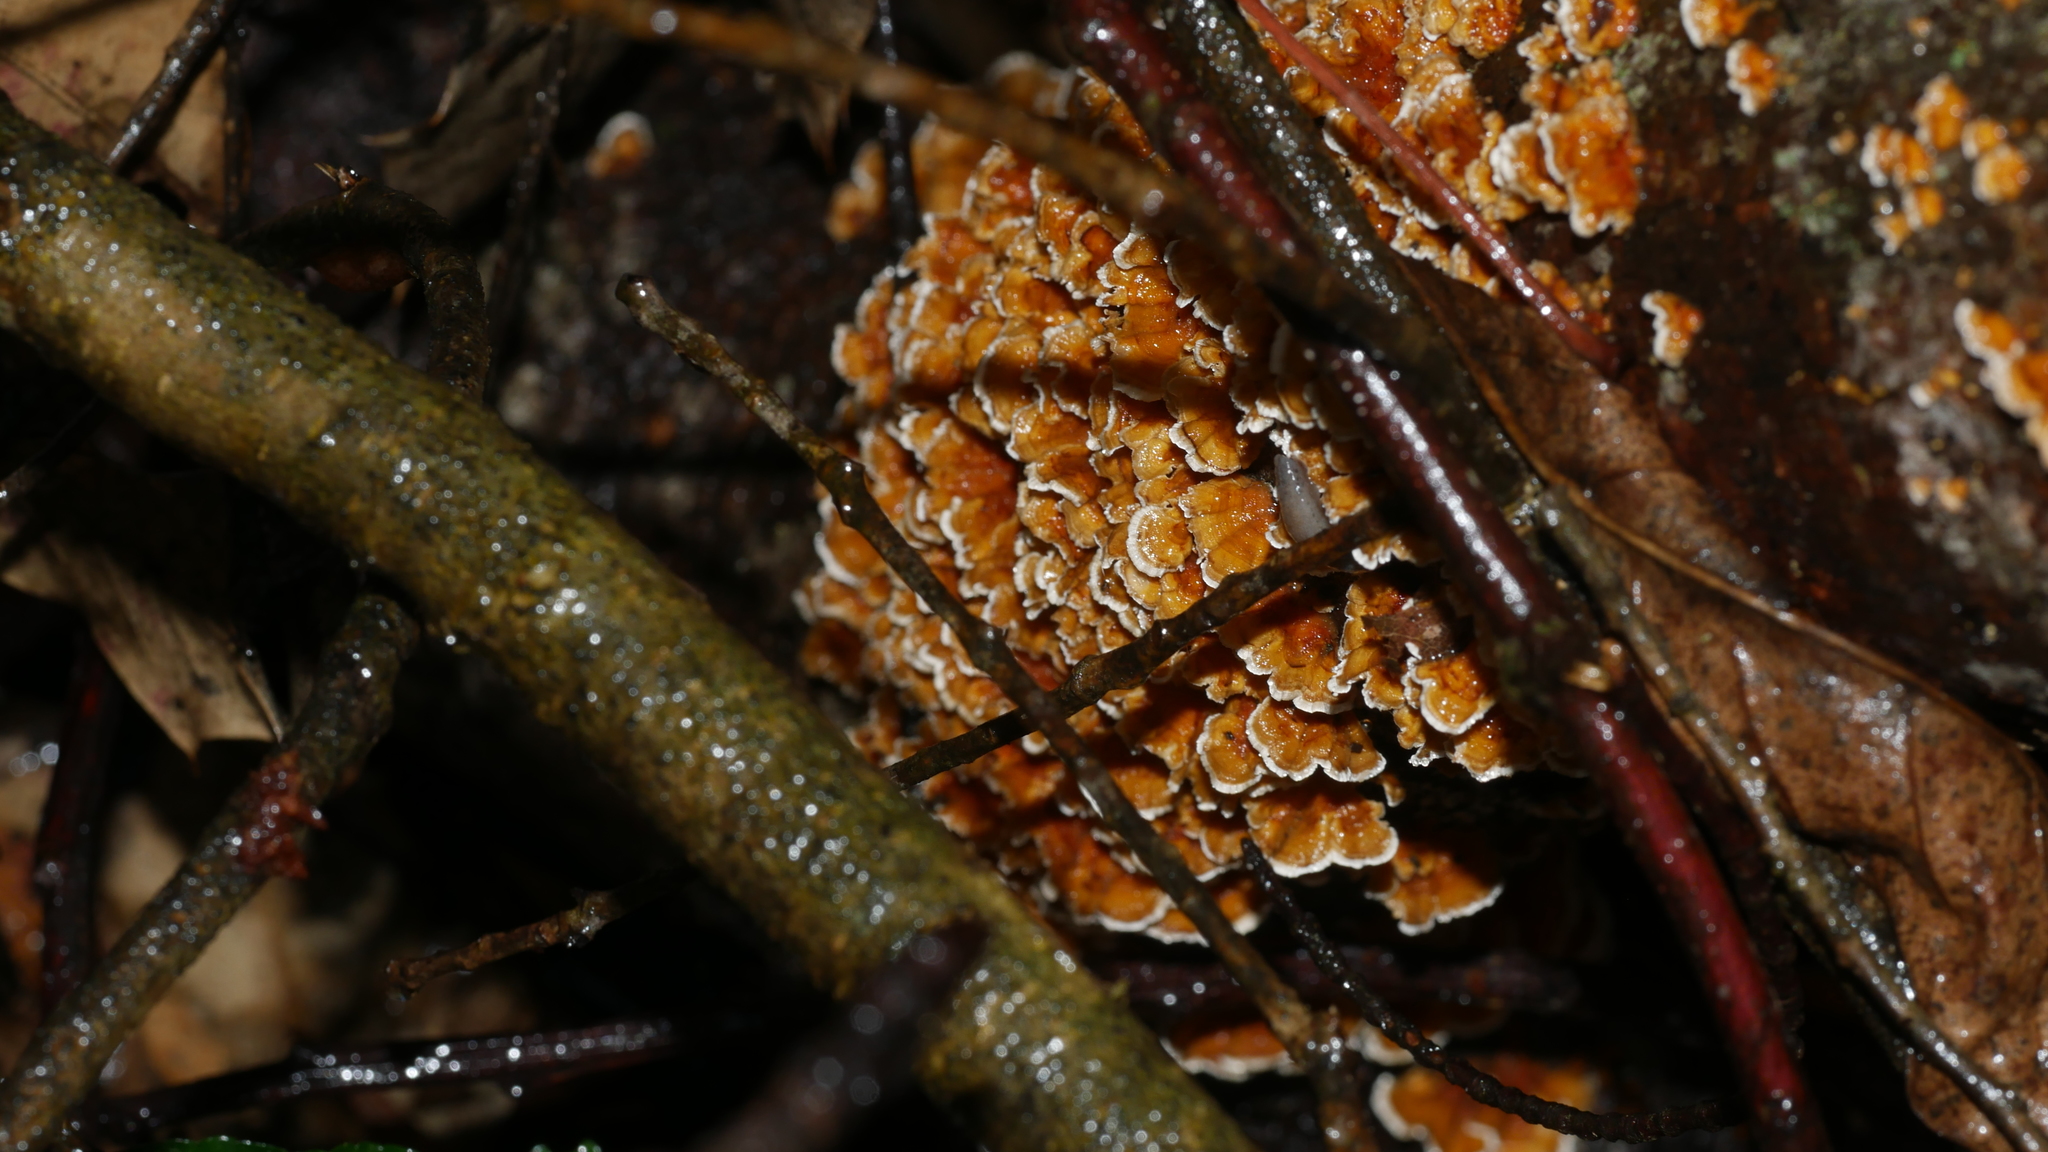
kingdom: Fungi
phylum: Basidiomycota
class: Agaricomycetes
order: Russulales
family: Stereaceae
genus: Stereum
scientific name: Stereum complicatum
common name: Crowded parchment
